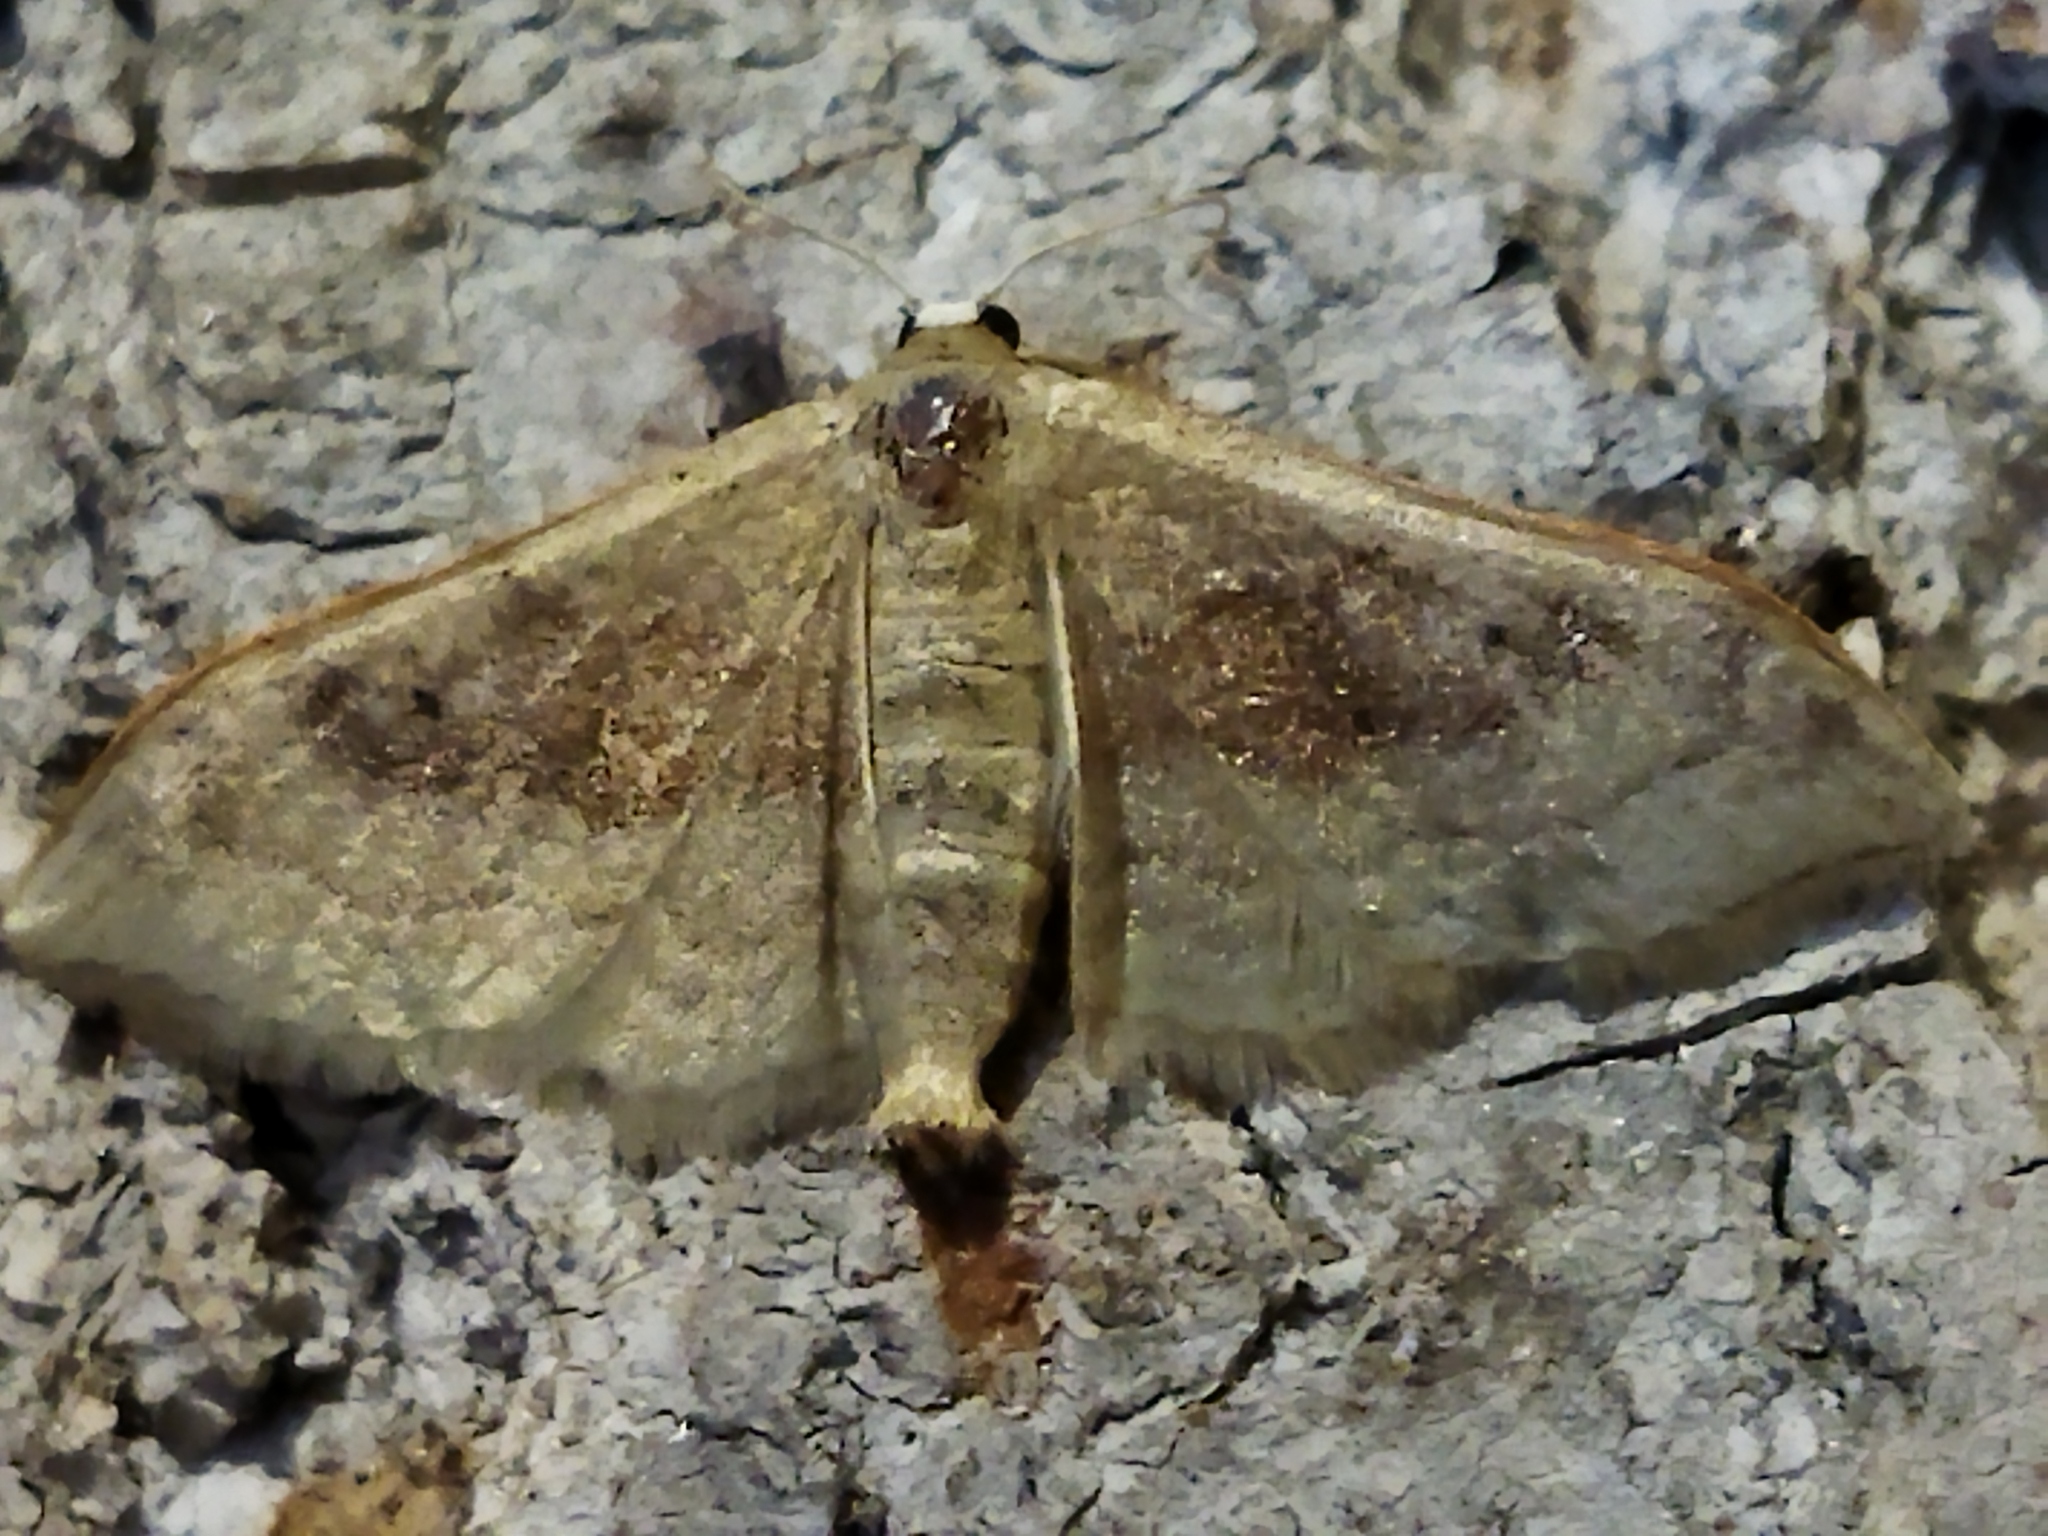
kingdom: Animalia
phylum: Arthropoda
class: Insecta
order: Lepidoptera
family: Geometridae
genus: Idaea
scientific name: Idaea degeneraria
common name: Portland ribbon wave
